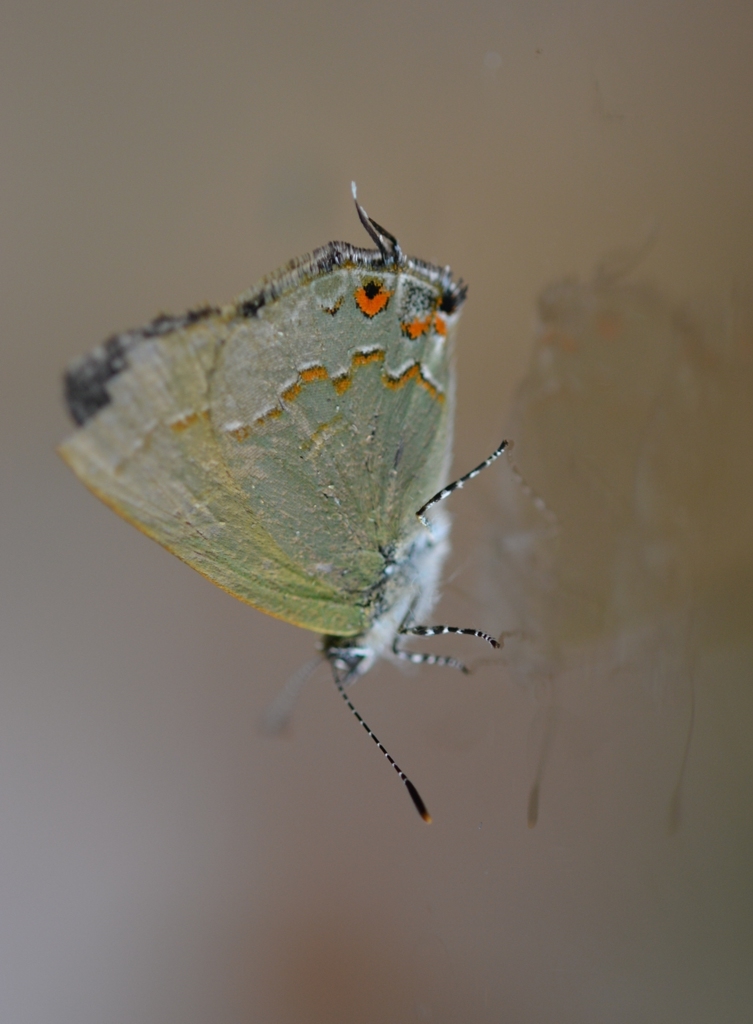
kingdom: Animalia
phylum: Arthropoda
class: Insecta
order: Lepidoptera
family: Lycaenidae
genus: Erora
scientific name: Erora
